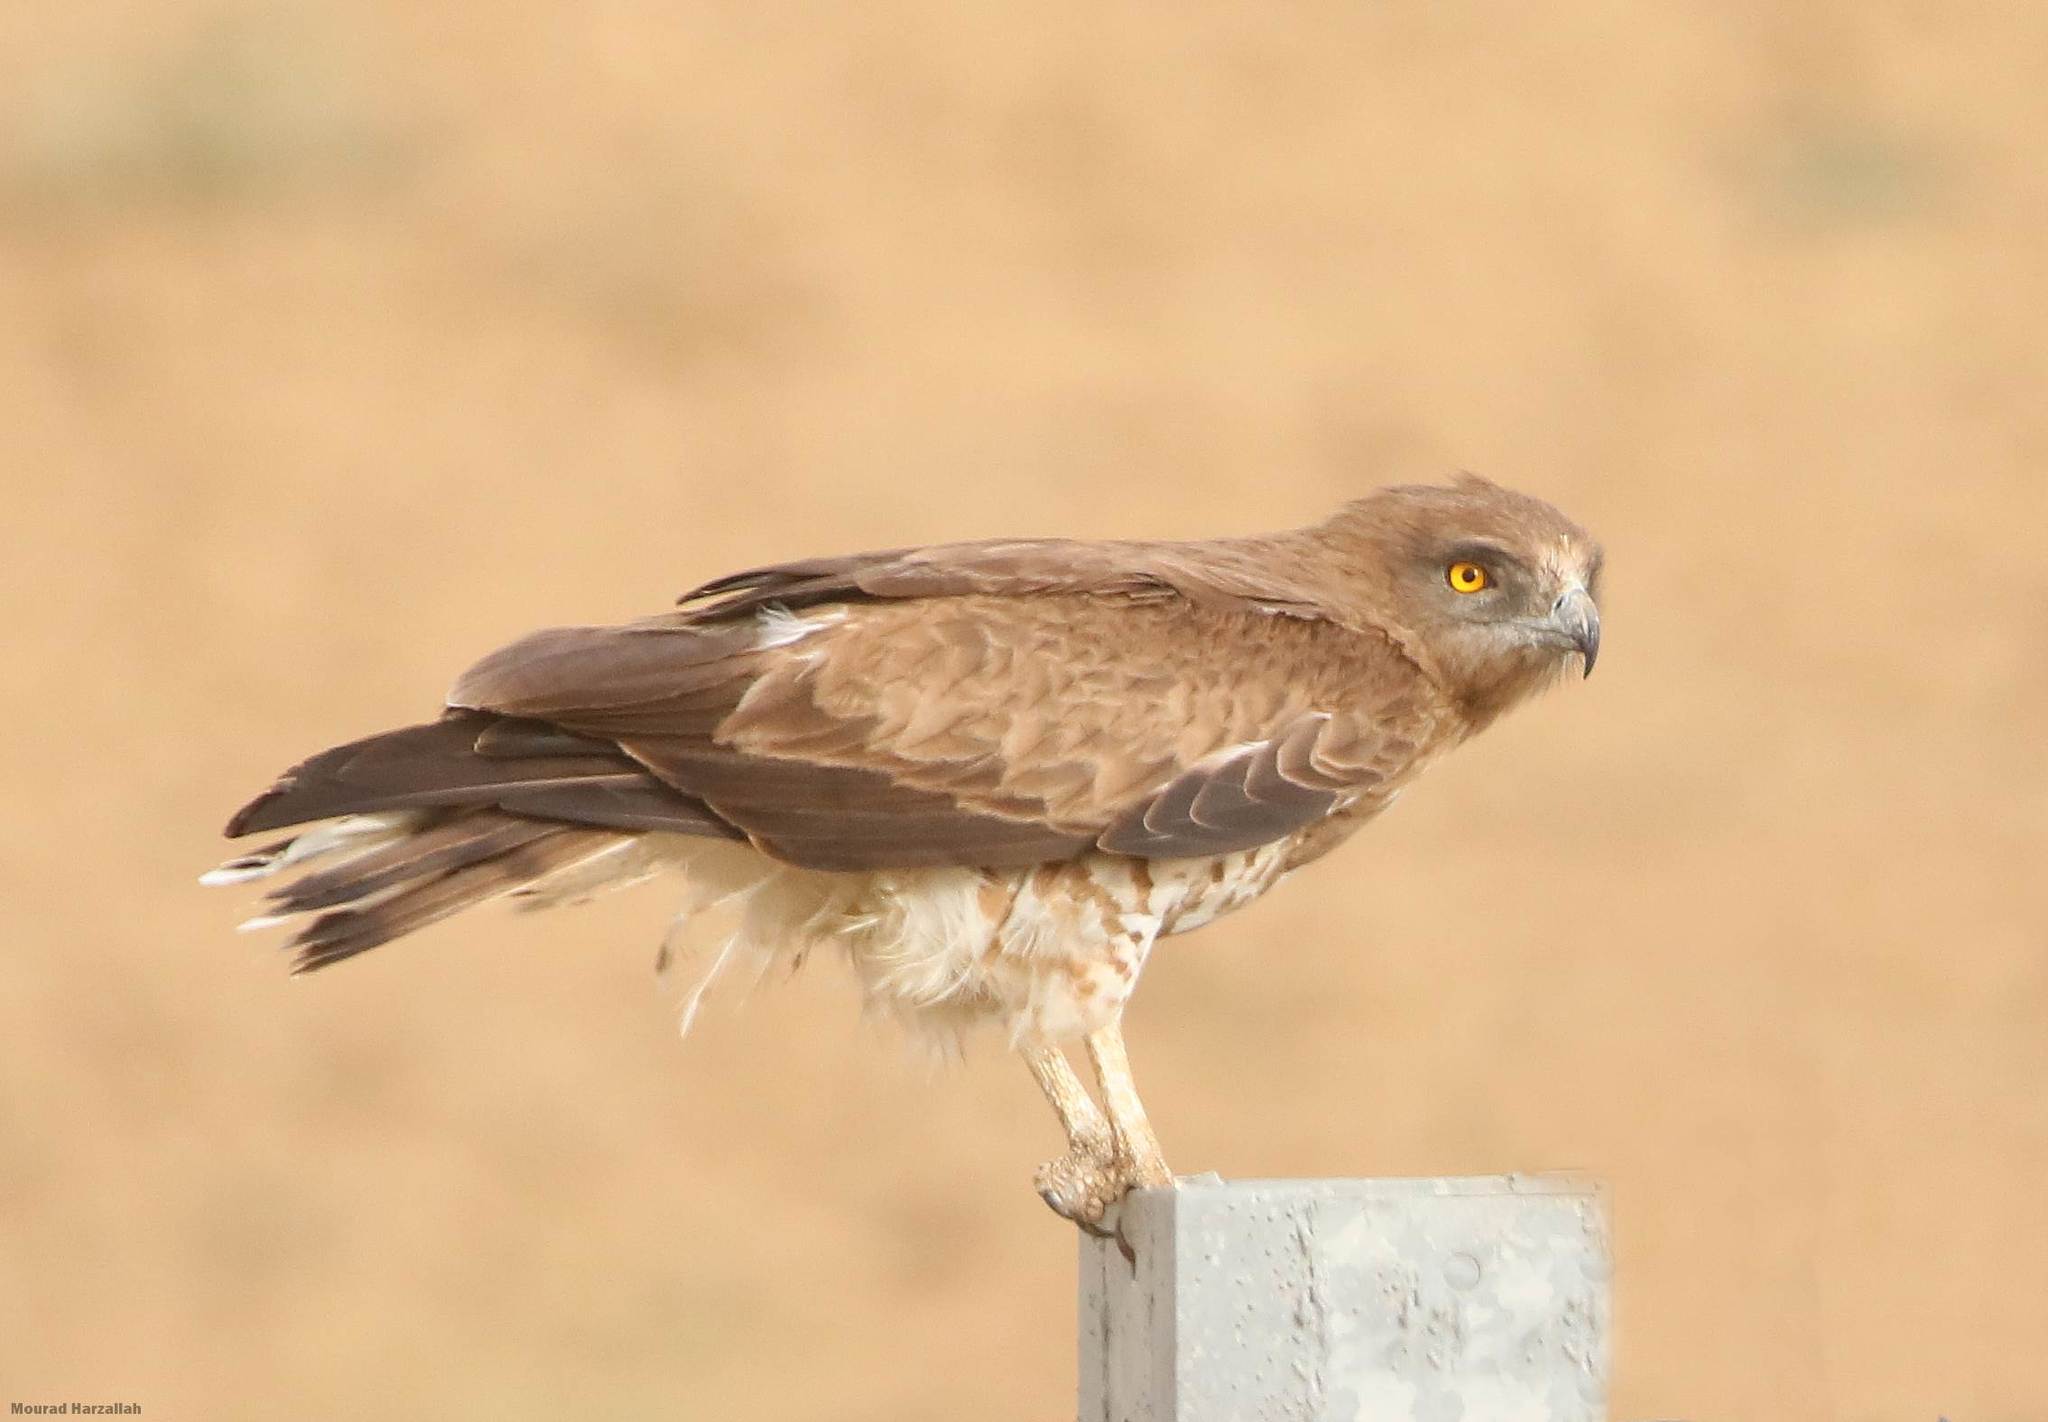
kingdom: Animalia
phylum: Chordata
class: Aves
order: Accipitriformes
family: Accipitridae
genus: Circaetus
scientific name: Circaetus gallicus
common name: Short-toed snake eagle
